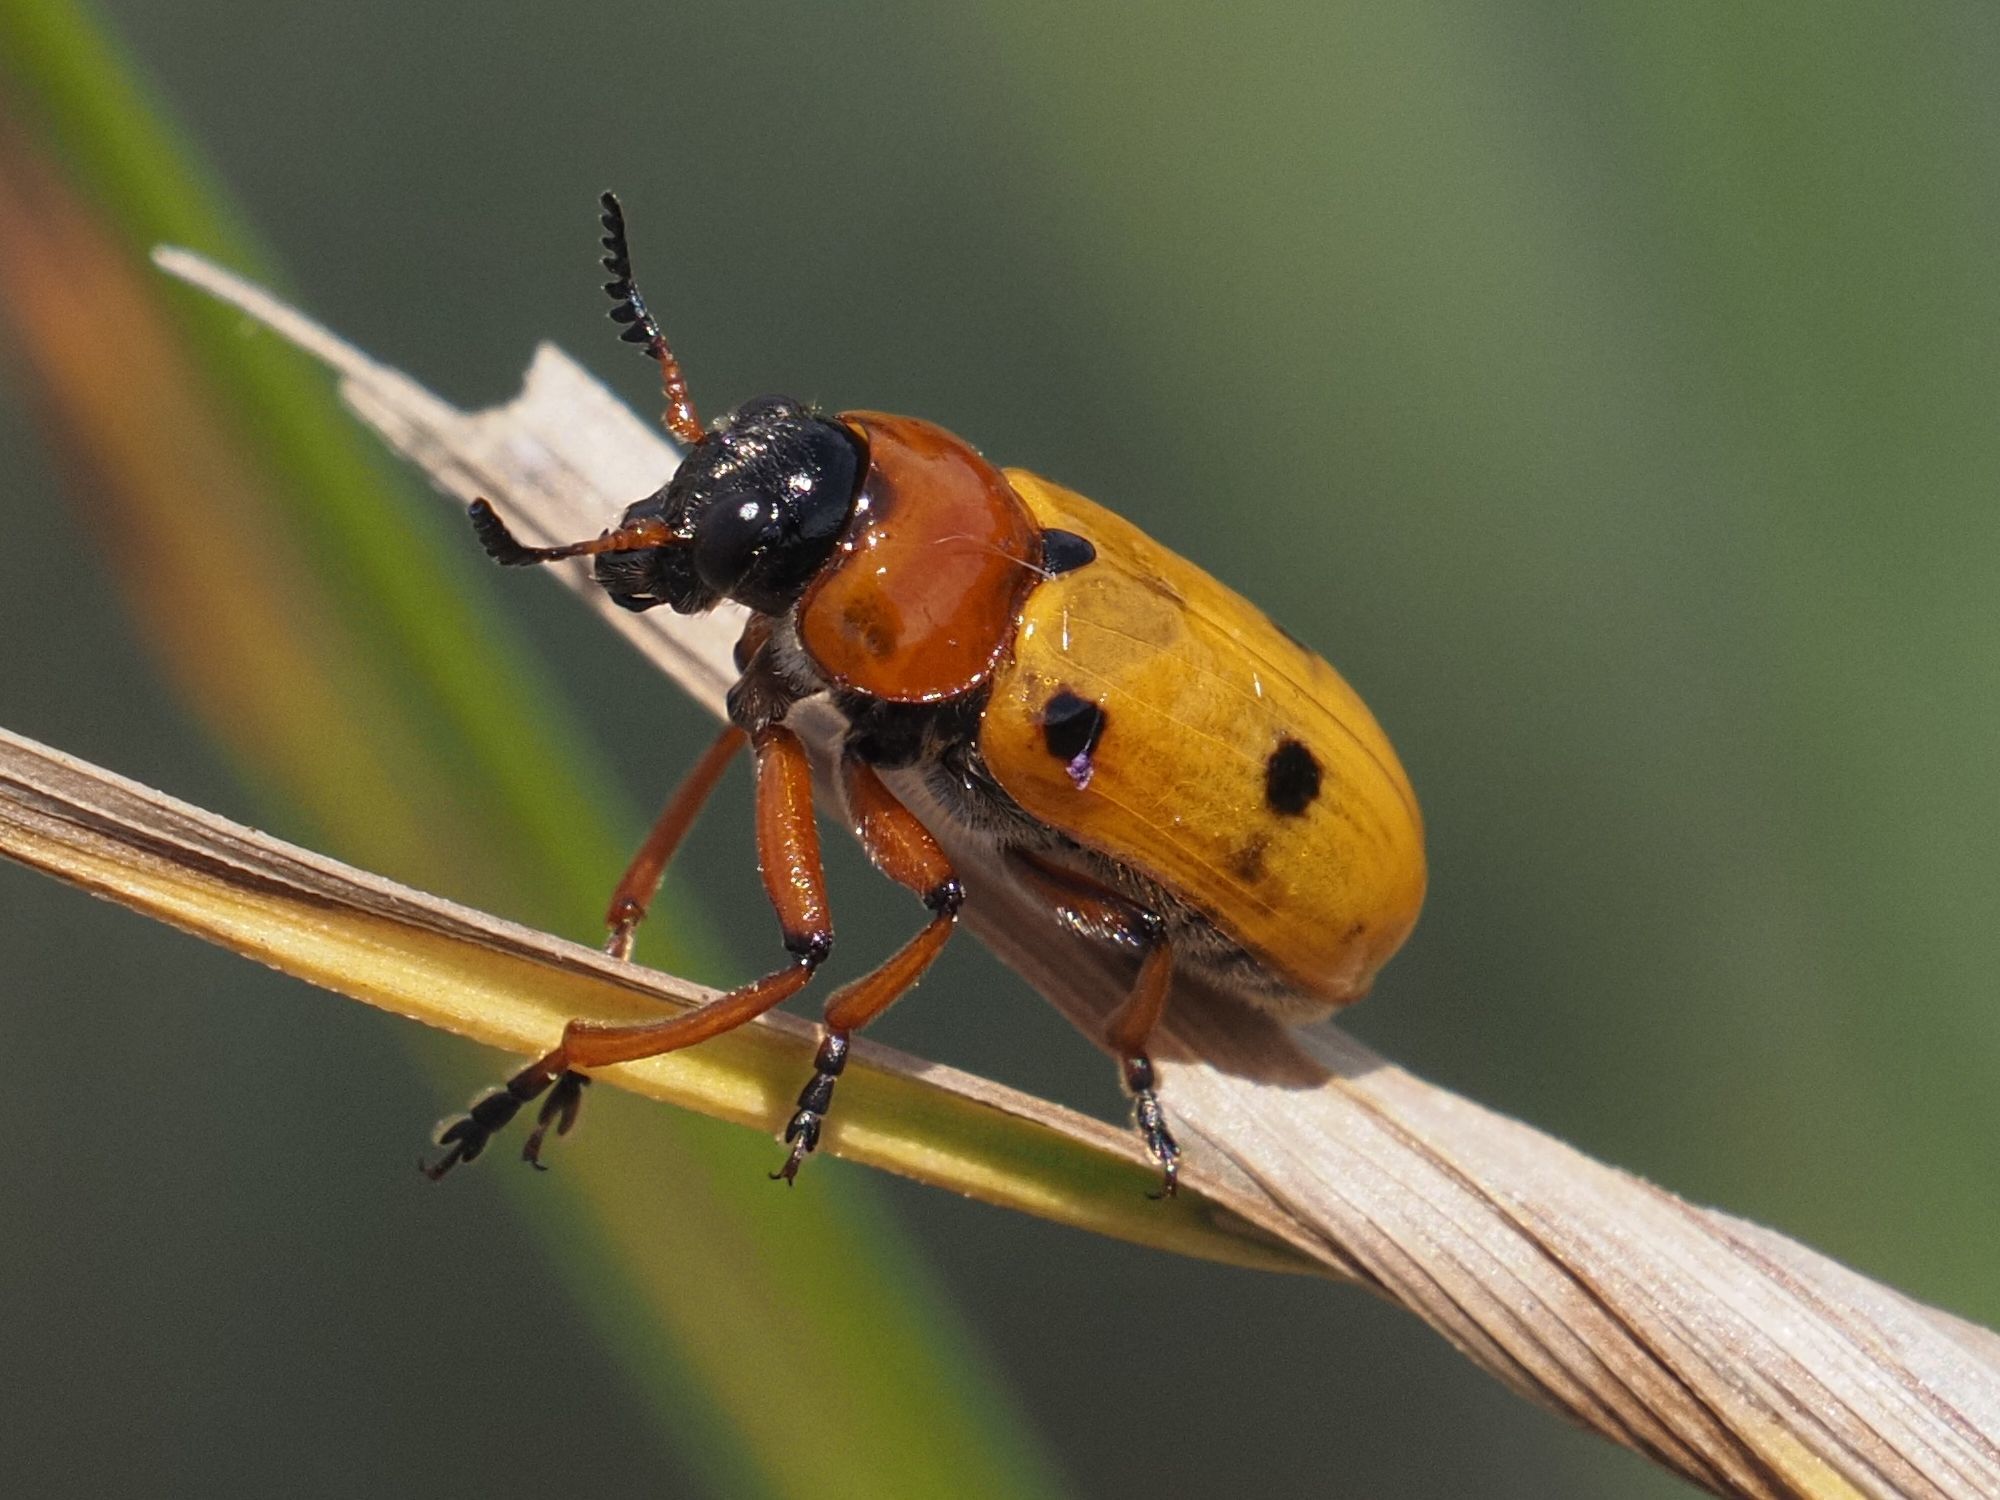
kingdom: Animalia
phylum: Arthropoda
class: Insecta
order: Coleoptera
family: Chrysomelidae
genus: Tituboea
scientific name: Tituboea macropus
